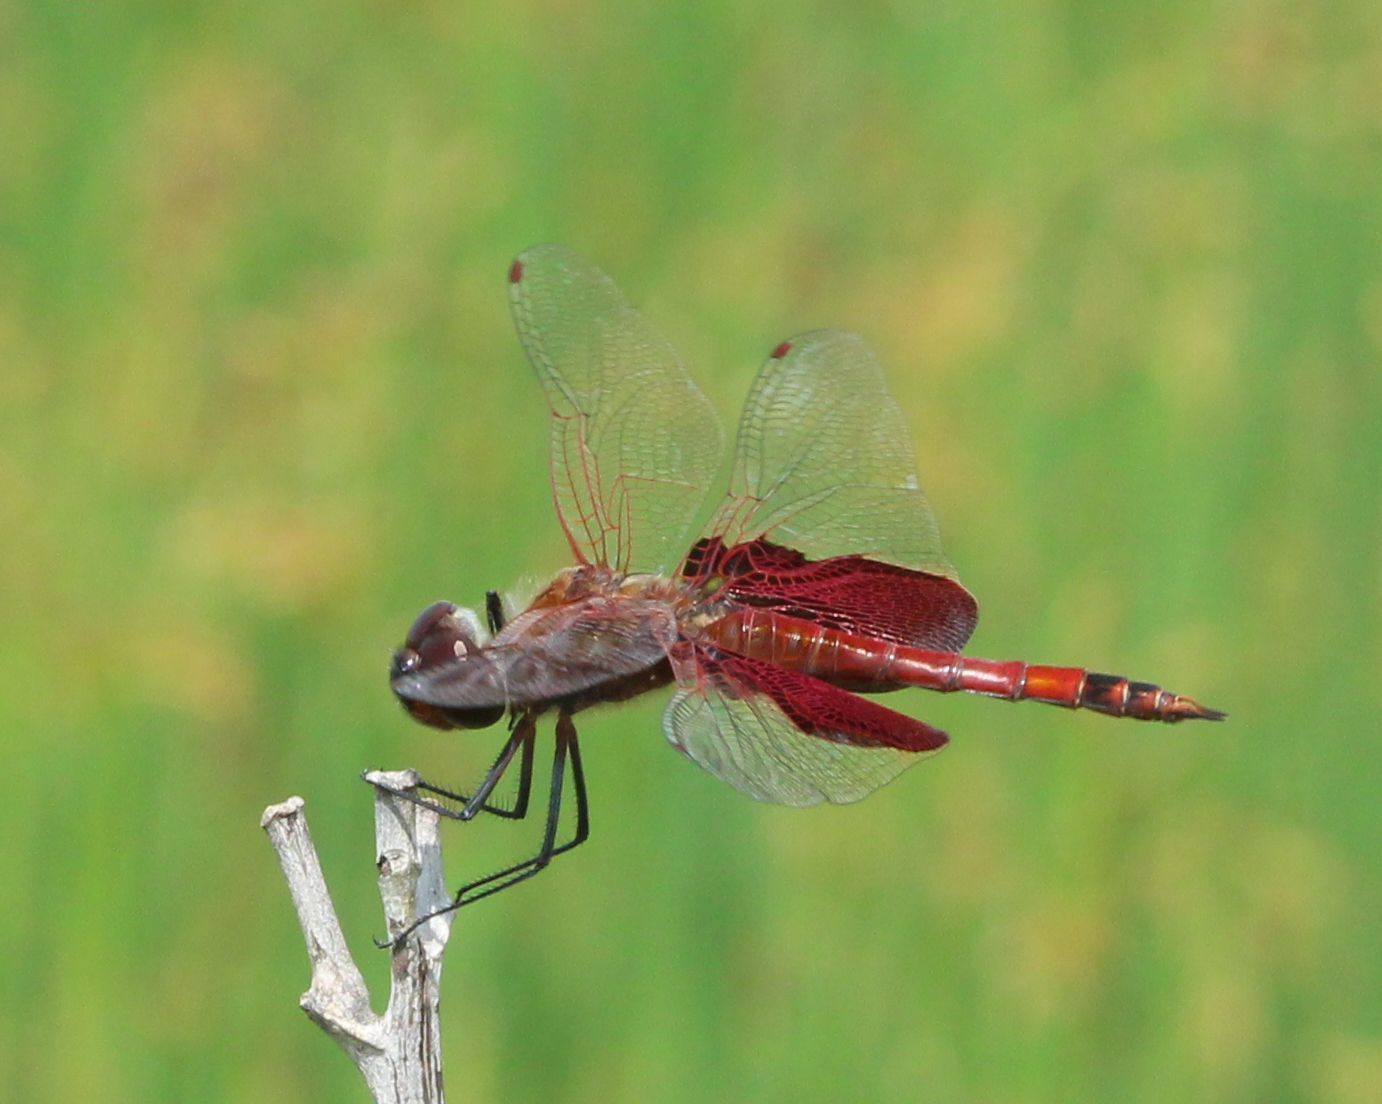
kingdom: Animalia
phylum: Arthropoda
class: Insecta
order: Odonata
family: Libellulidae
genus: Tramea
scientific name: Tramea carolina
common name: Carolina saddlebags
